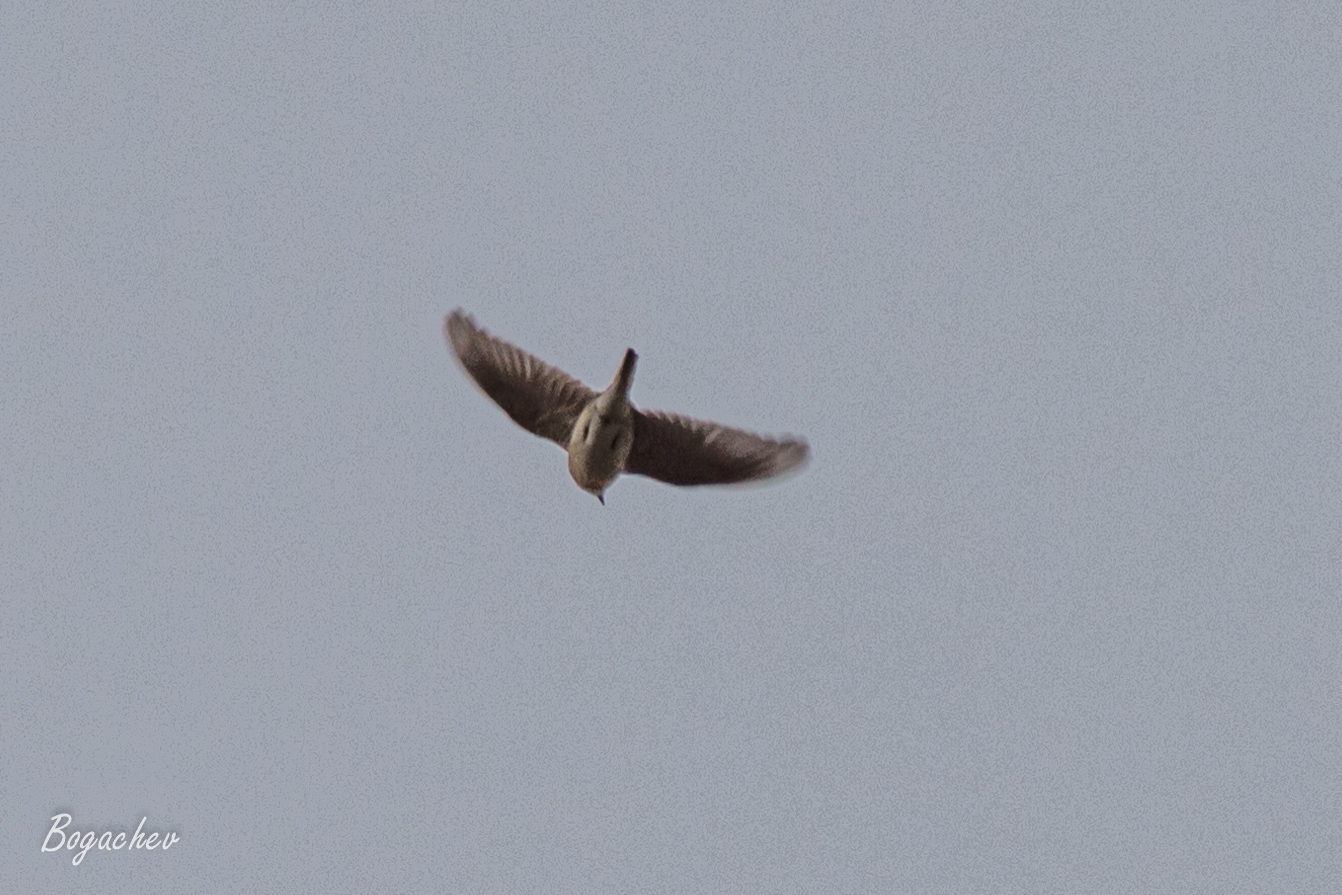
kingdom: Animalia
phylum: Chordata
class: Aves
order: Passeriformes
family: Alaudidae
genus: Alauda
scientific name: Alauda arvensis
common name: Eurasian skylark
